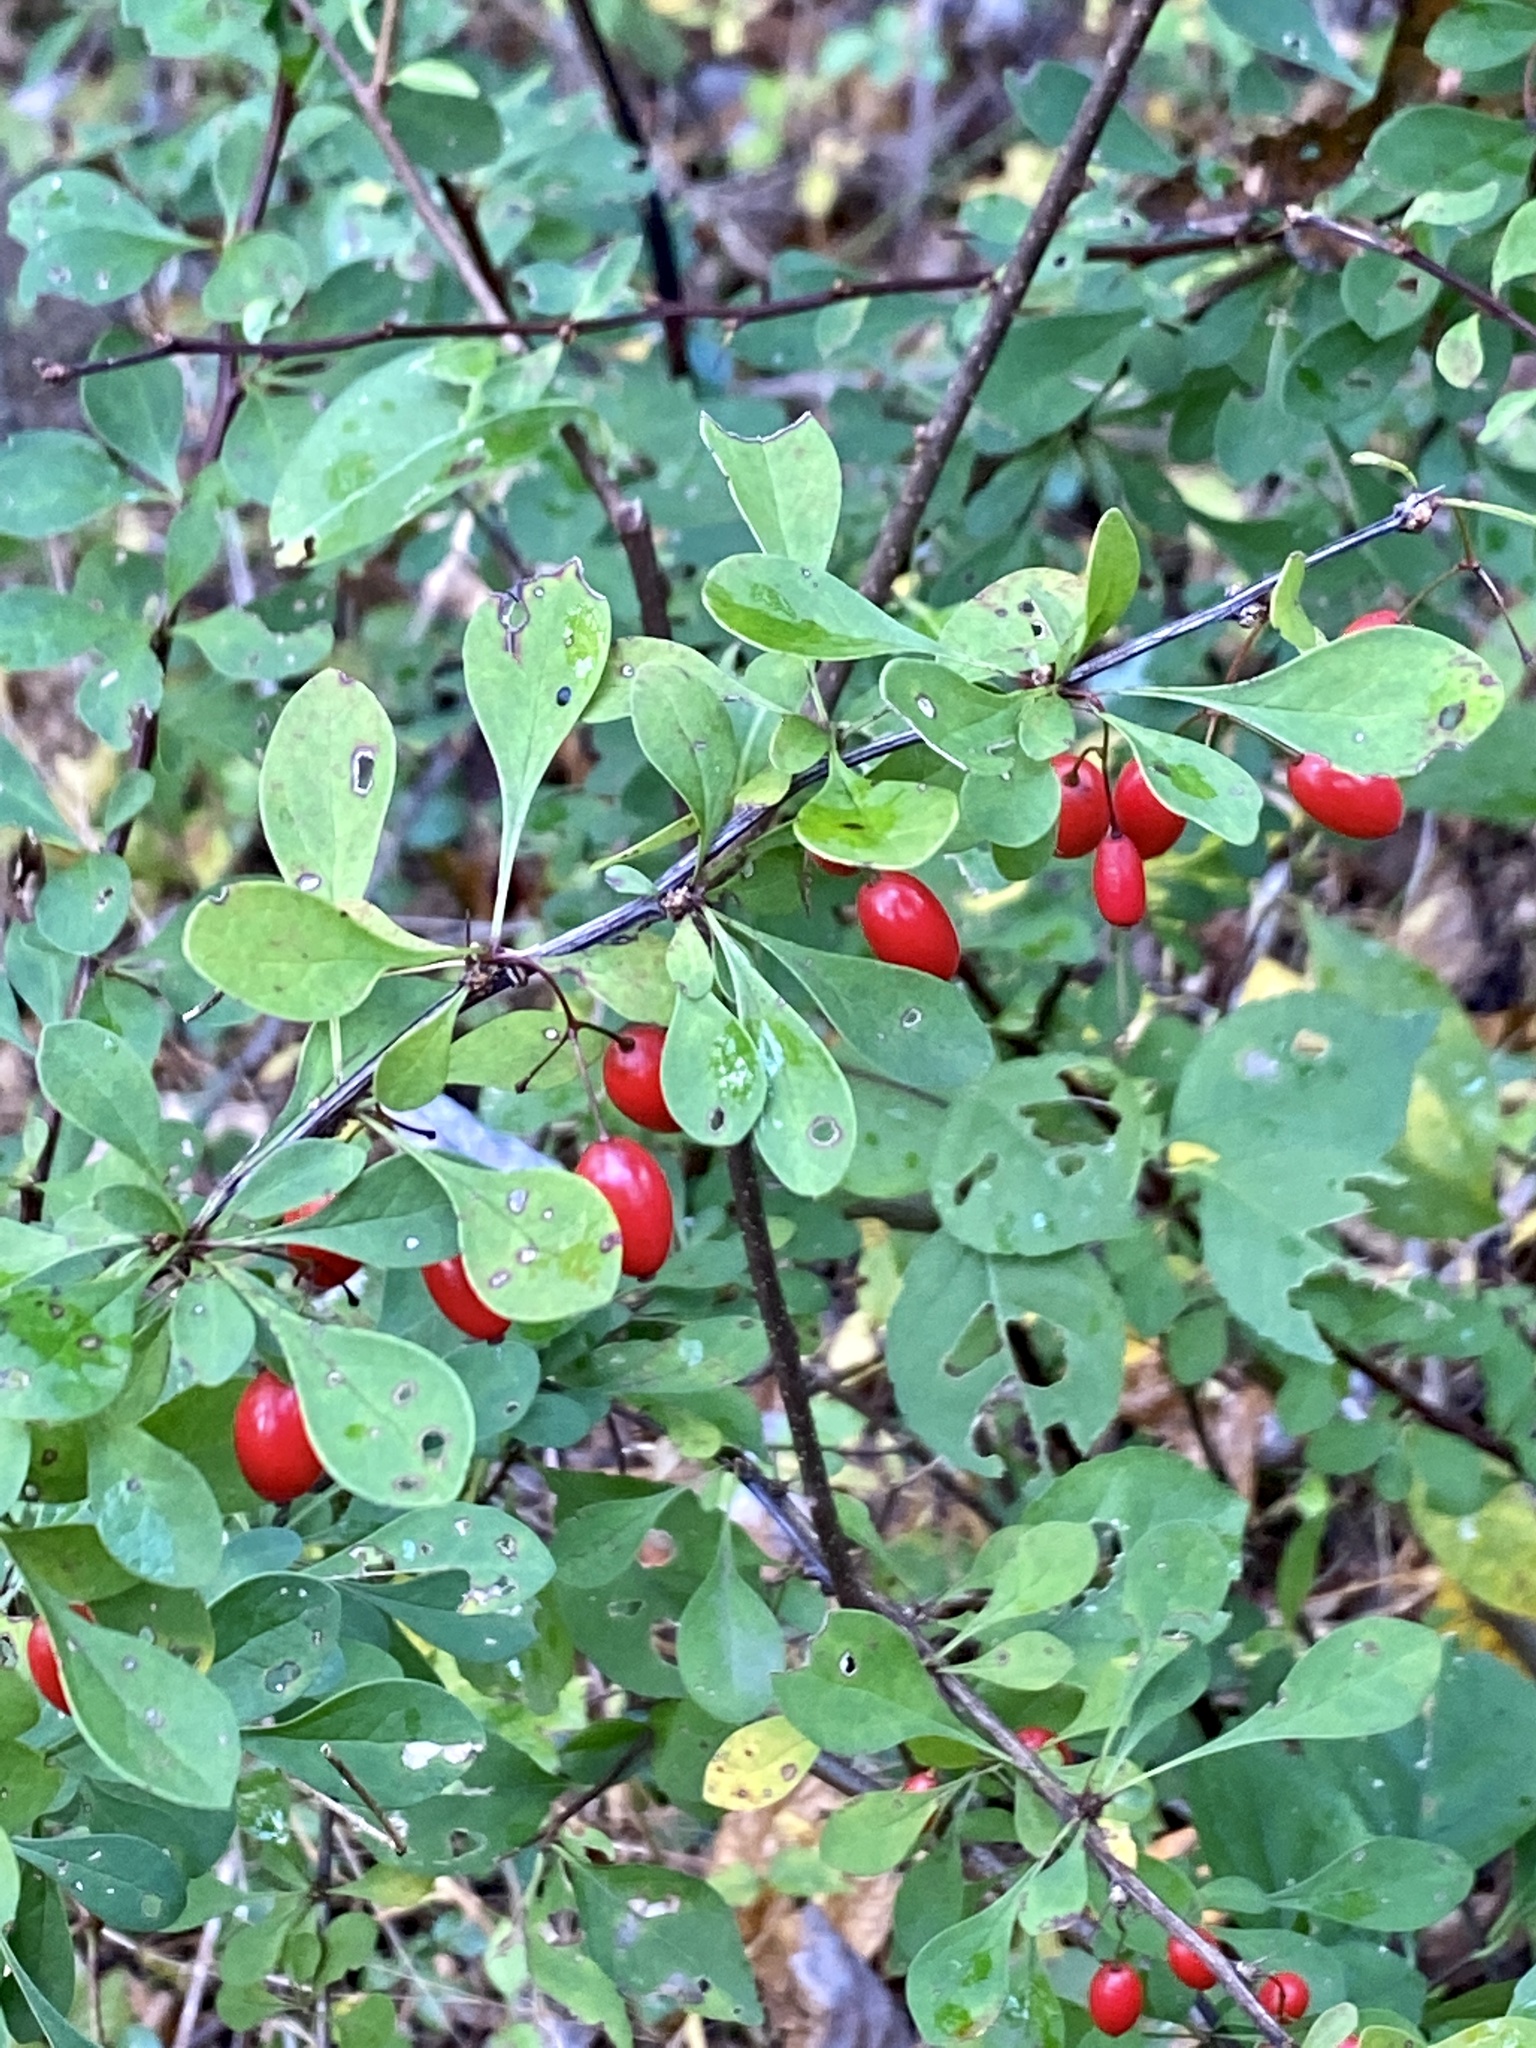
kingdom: Plantae
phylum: Tracheophyta
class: Magnoliopsida
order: Ranunculales
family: Berberidaceae
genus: Berberis
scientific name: Berberis thunbergii
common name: Japanese barberry
